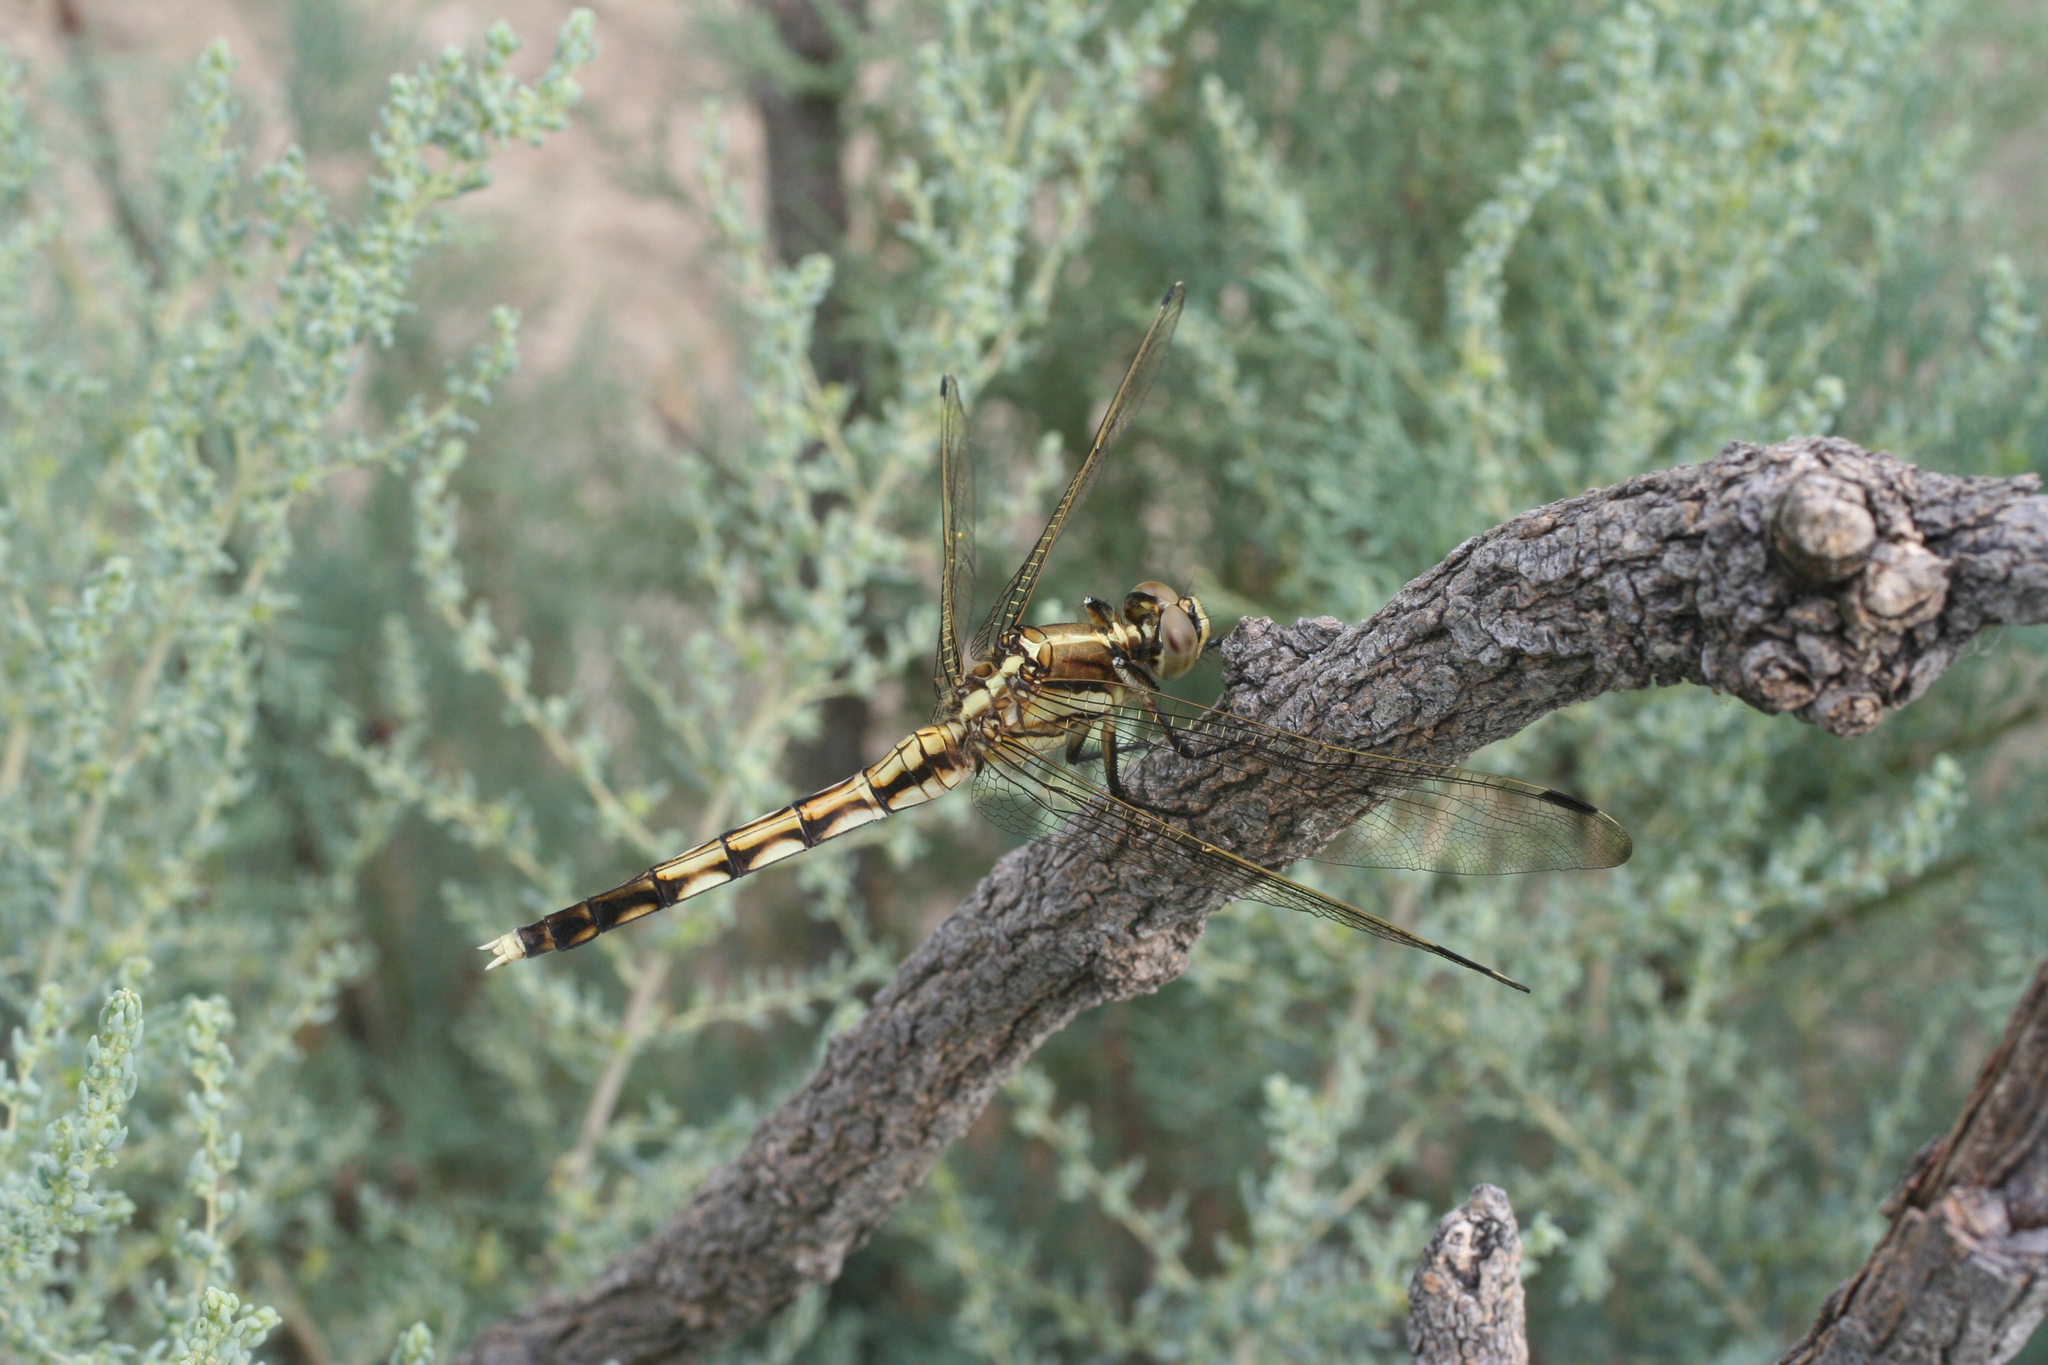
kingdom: Animalia
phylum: Arthropoda
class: Insecta
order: Odonata
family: Libellulidae
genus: Orthetrum
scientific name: Orthetrum albistylum
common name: White-tailed skimmer
